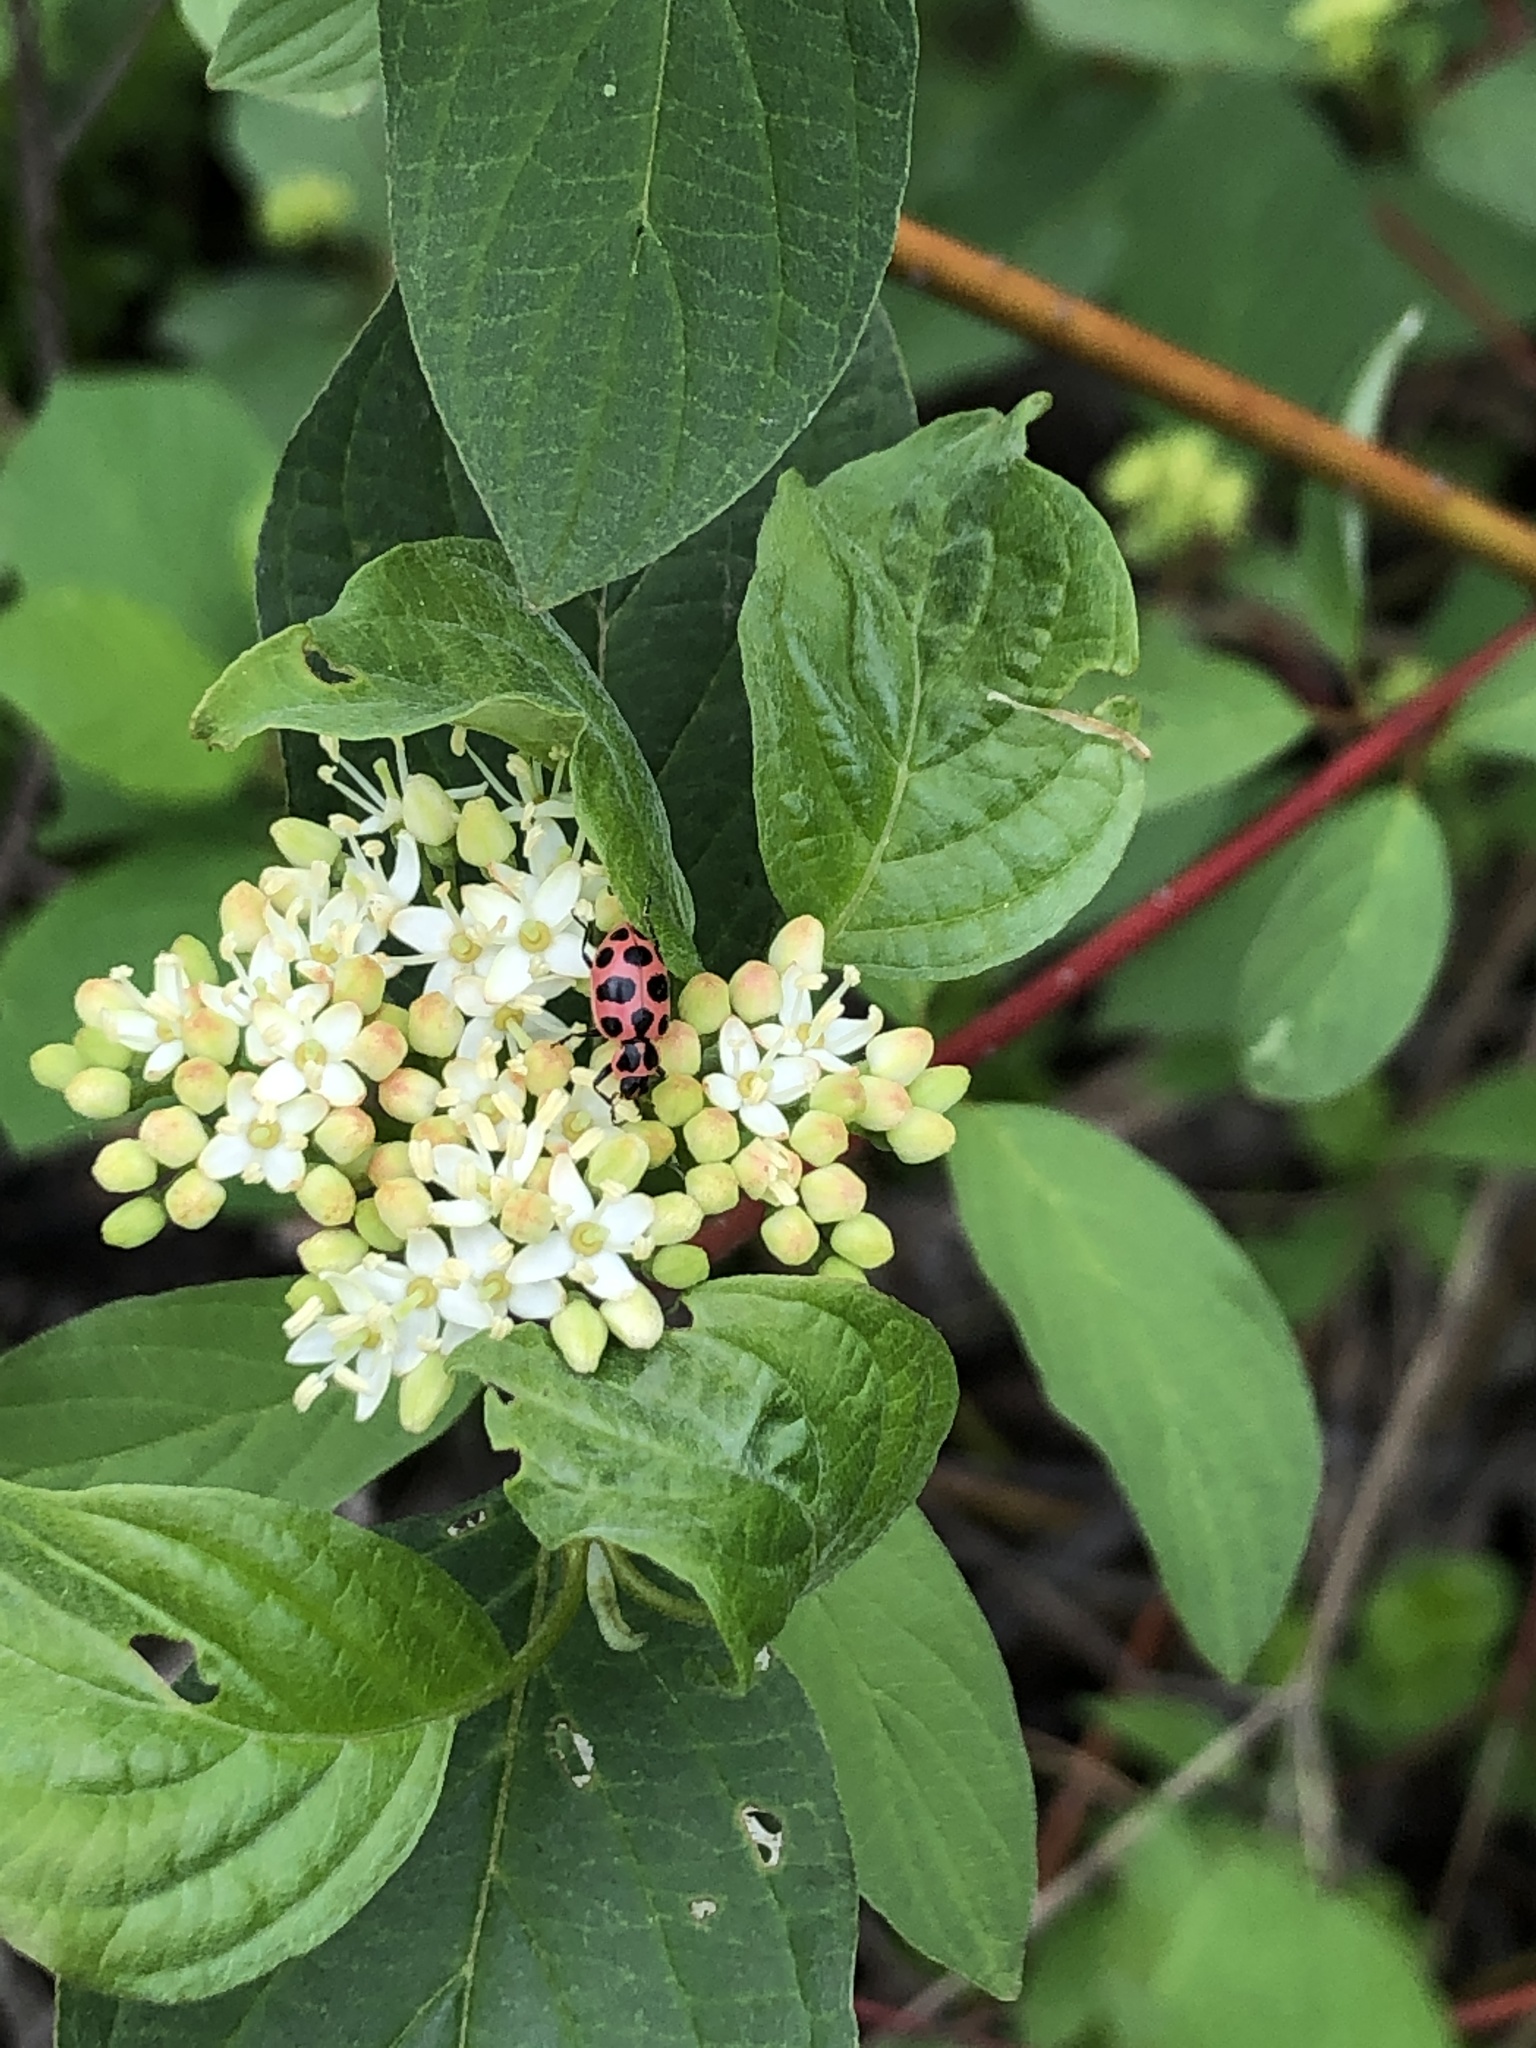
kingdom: Animalia
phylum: Arthropoda
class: Insecta
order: Coleoptera
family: Coccinellidae
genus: Coleomegilla
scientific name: Coleomegilla maculata
